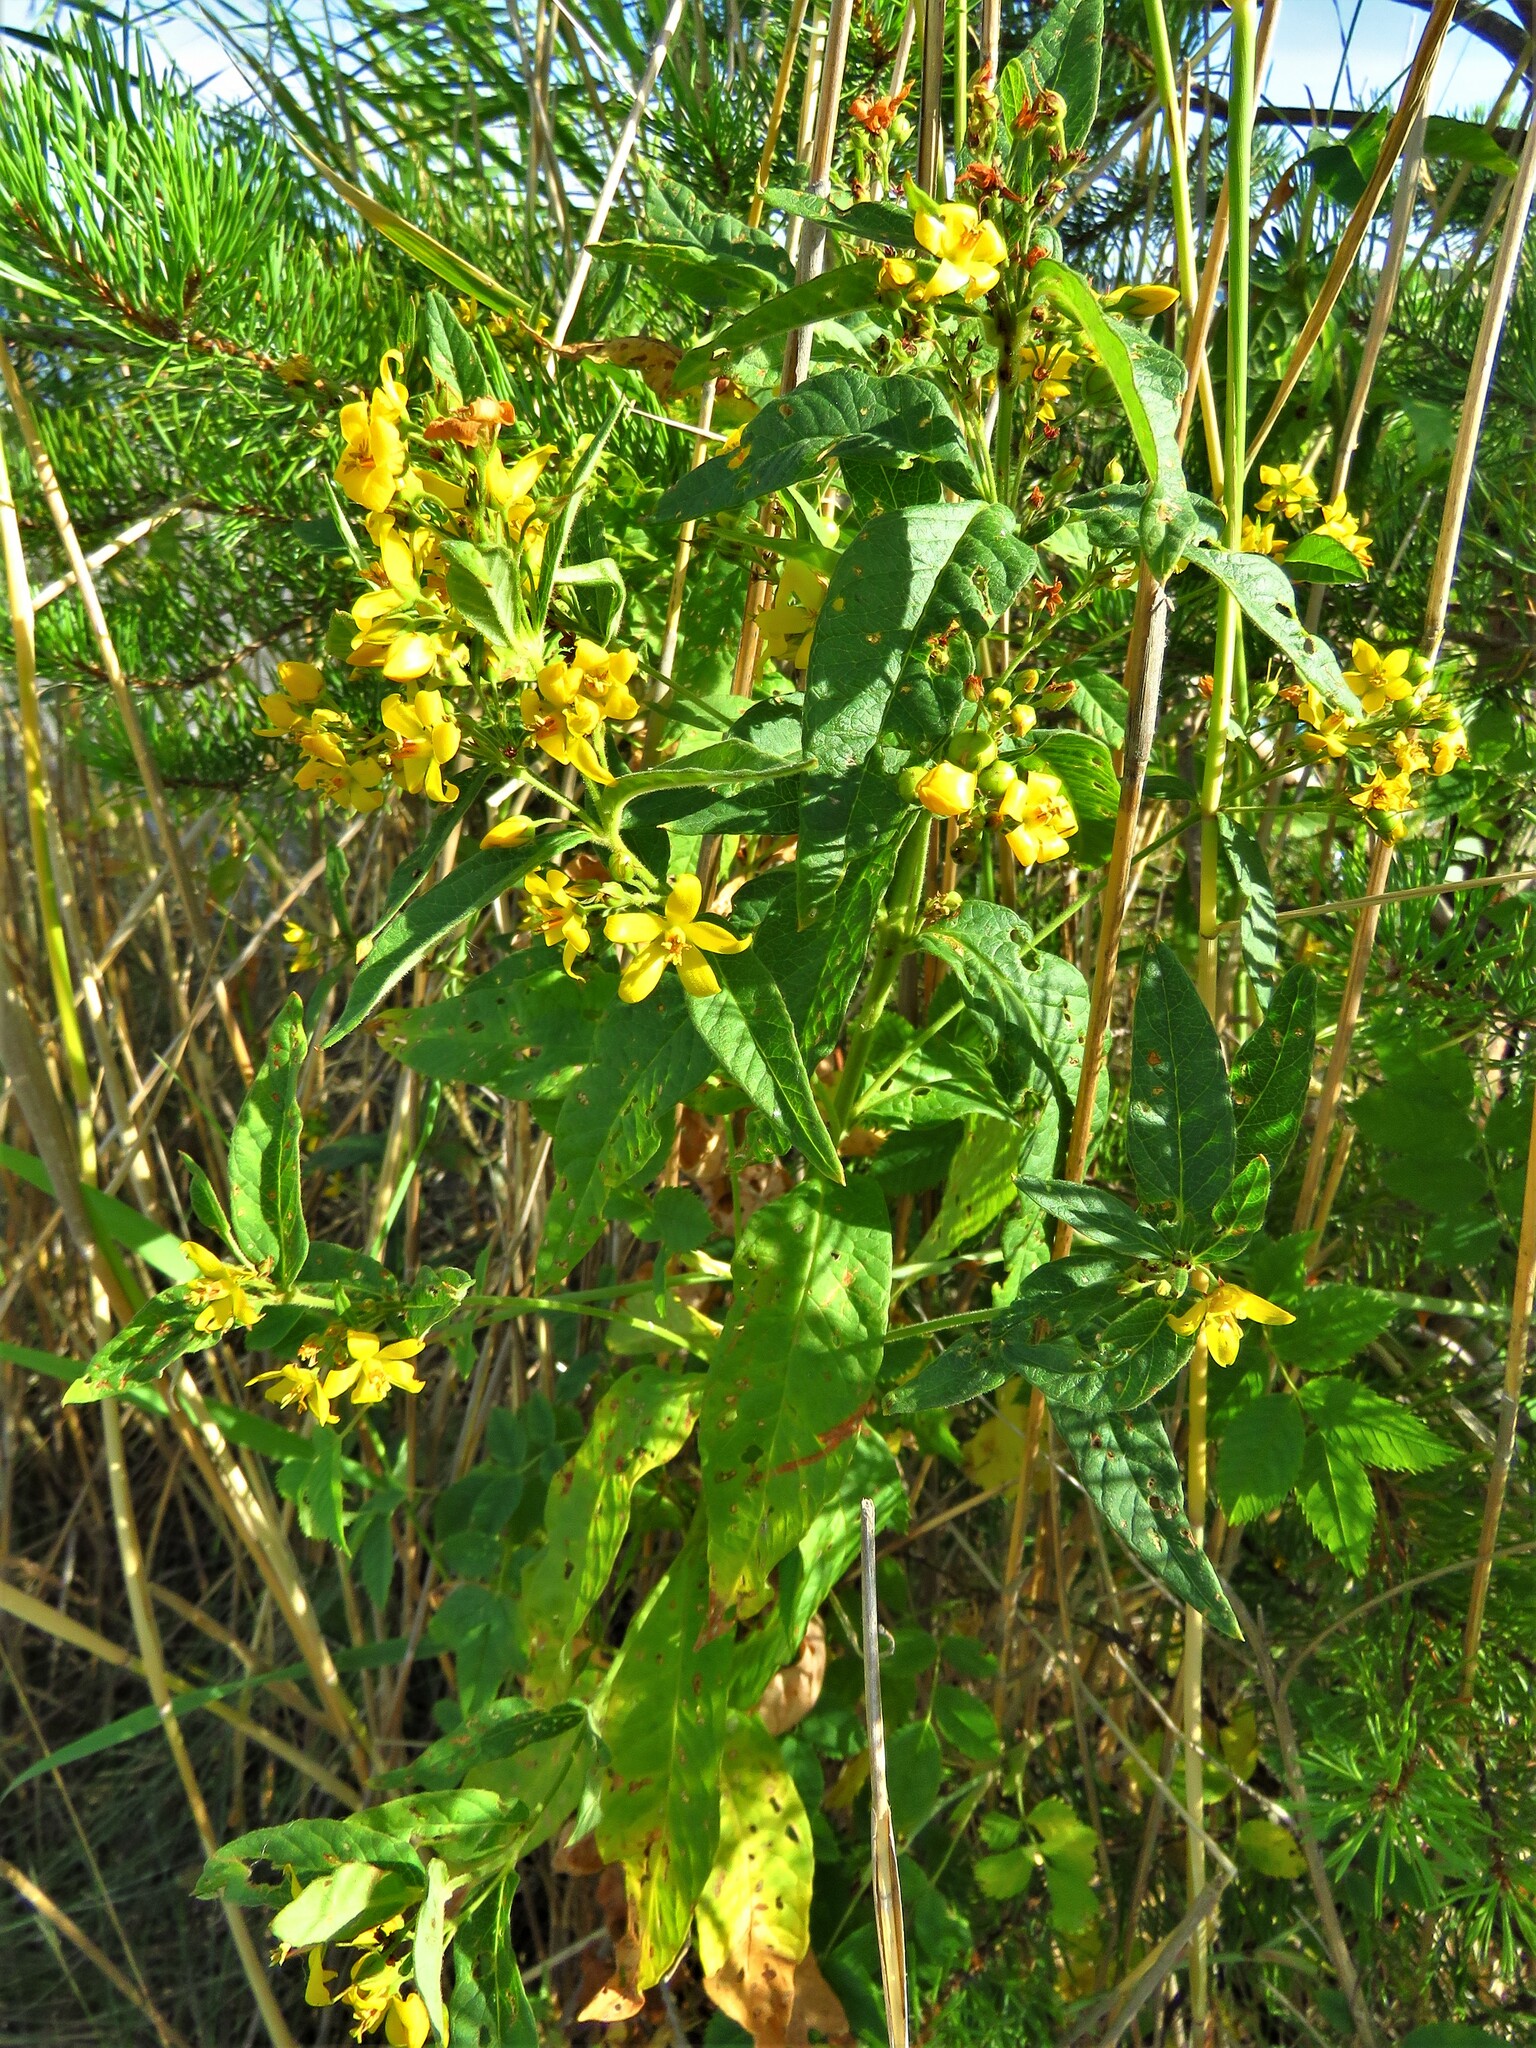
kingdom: Plantae
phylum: Tracheophyta
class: Magnoliopsida
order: Ericales
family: Primulaceae
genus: Lysimachia
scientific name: Lysimachia vulgaris
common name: Yellow loosestrife
